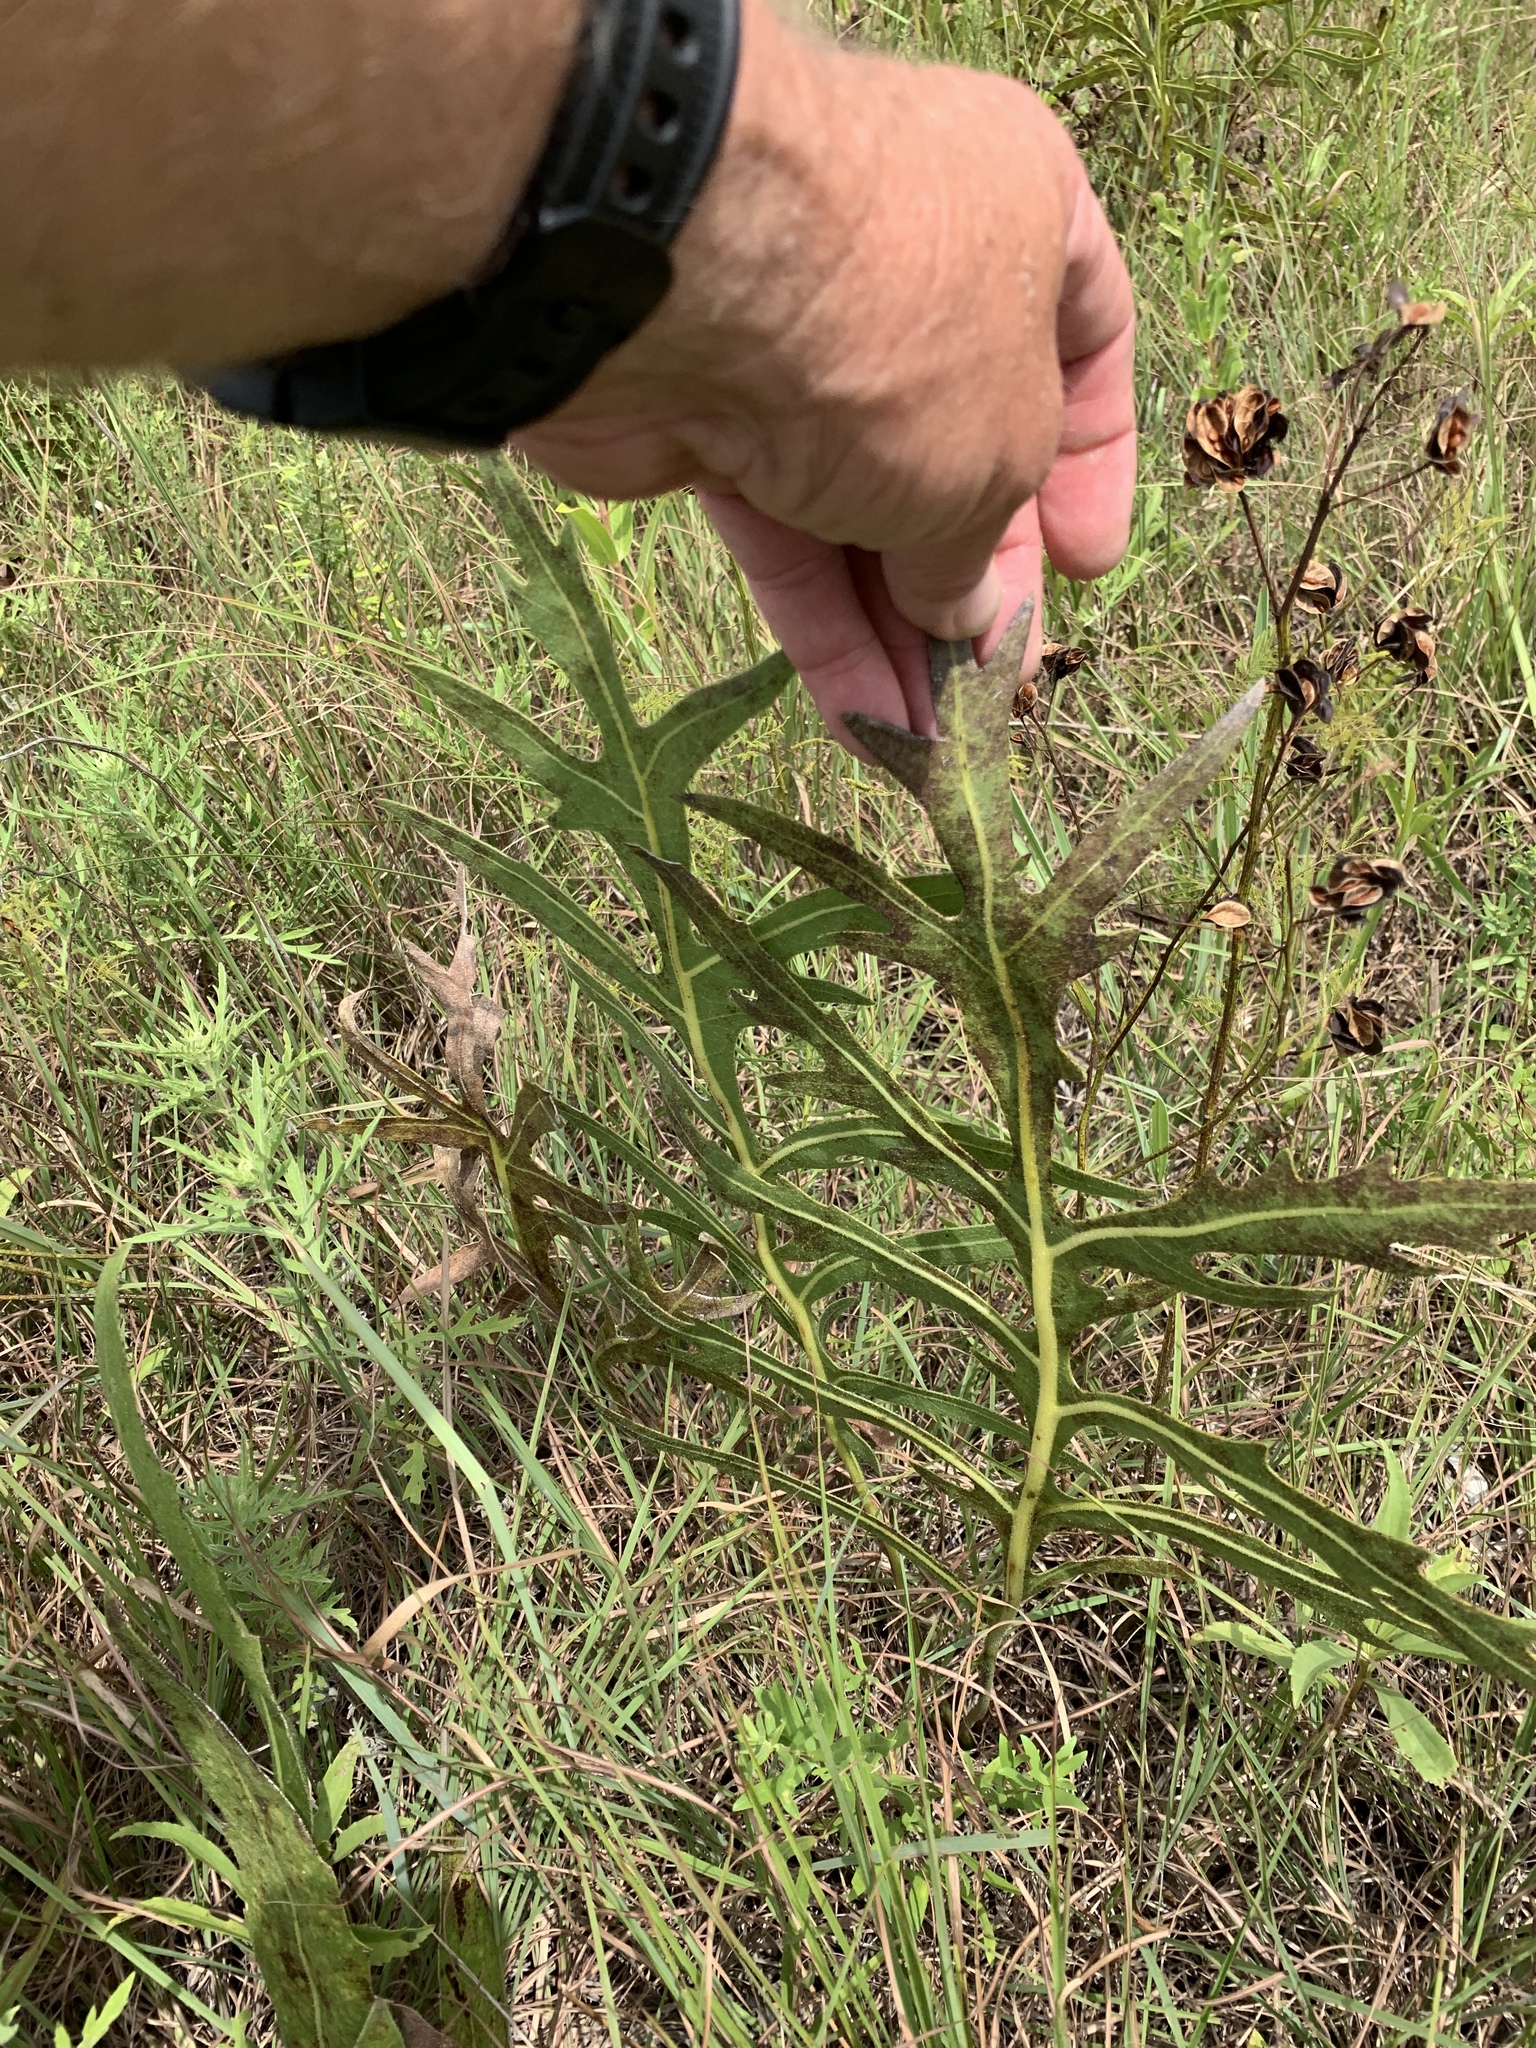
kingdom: Plantae
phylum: Tracheophyta
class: Magnoliopsida
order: Asterales
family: Asteraceae
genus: Silphium
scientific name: Silphium laciniatum
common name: Polarplant
